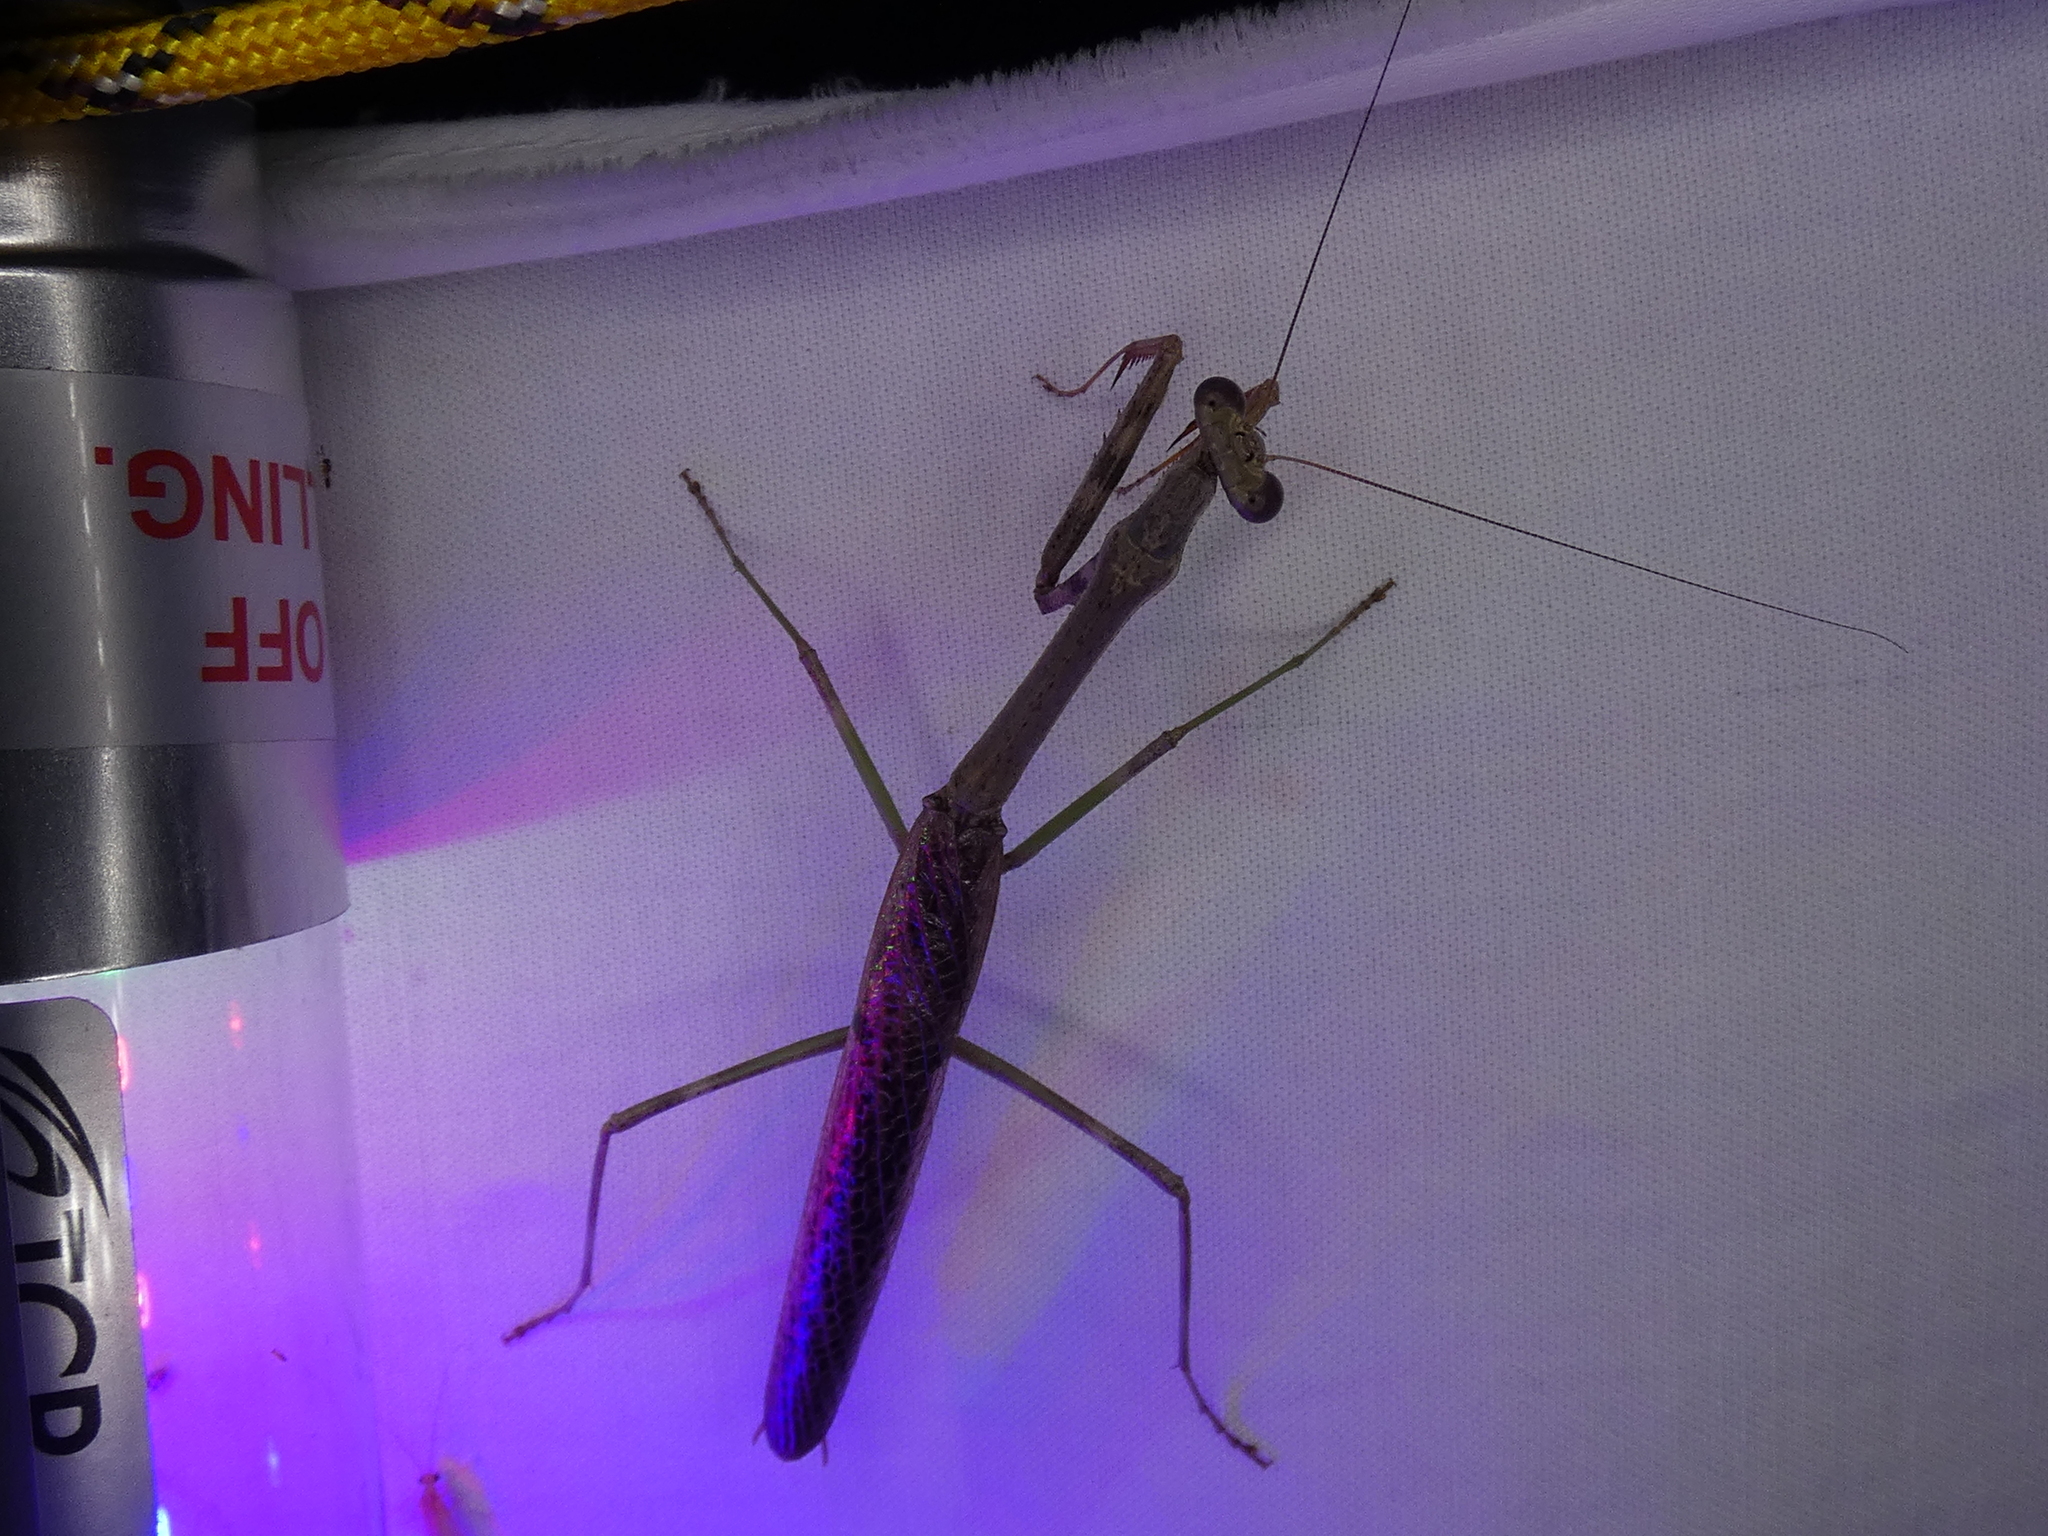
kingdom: Animalia
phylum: Arthropoda
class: Insecta
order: Mantodea
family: Mantidae
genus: Stagmomantis
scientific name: Stagmomantis carolina
